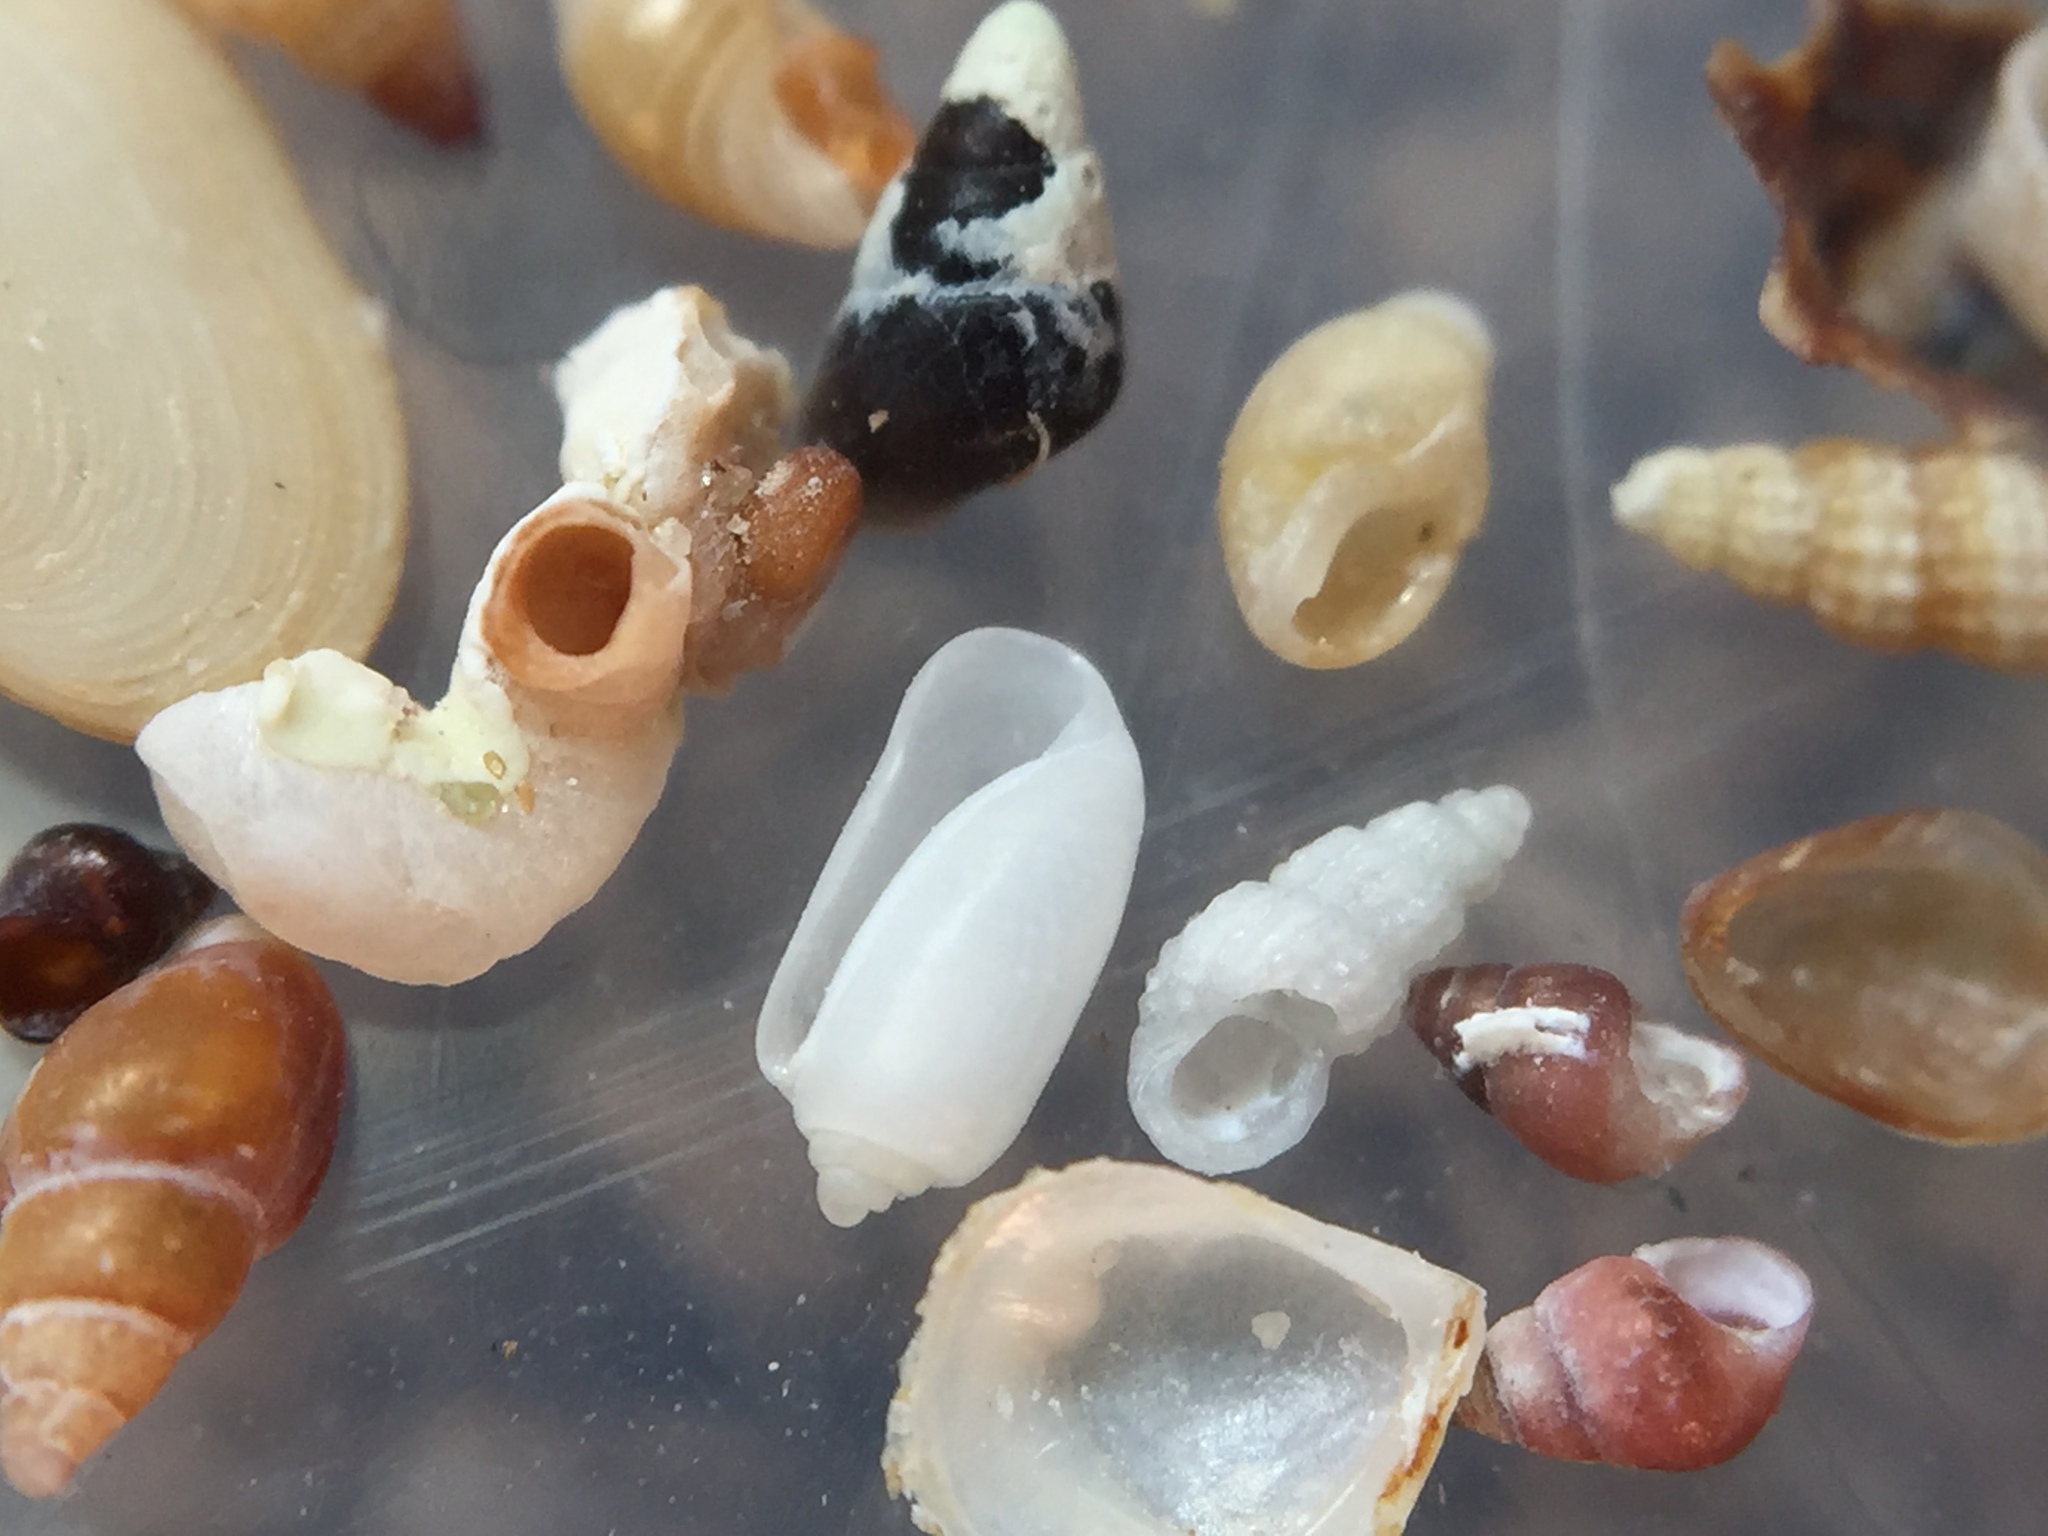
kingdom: Animalia
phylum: Mollusca
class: Gastropoda
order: Cephalaspidea
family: Retusidae
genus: Retusa
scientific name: Retusa oruaensis
